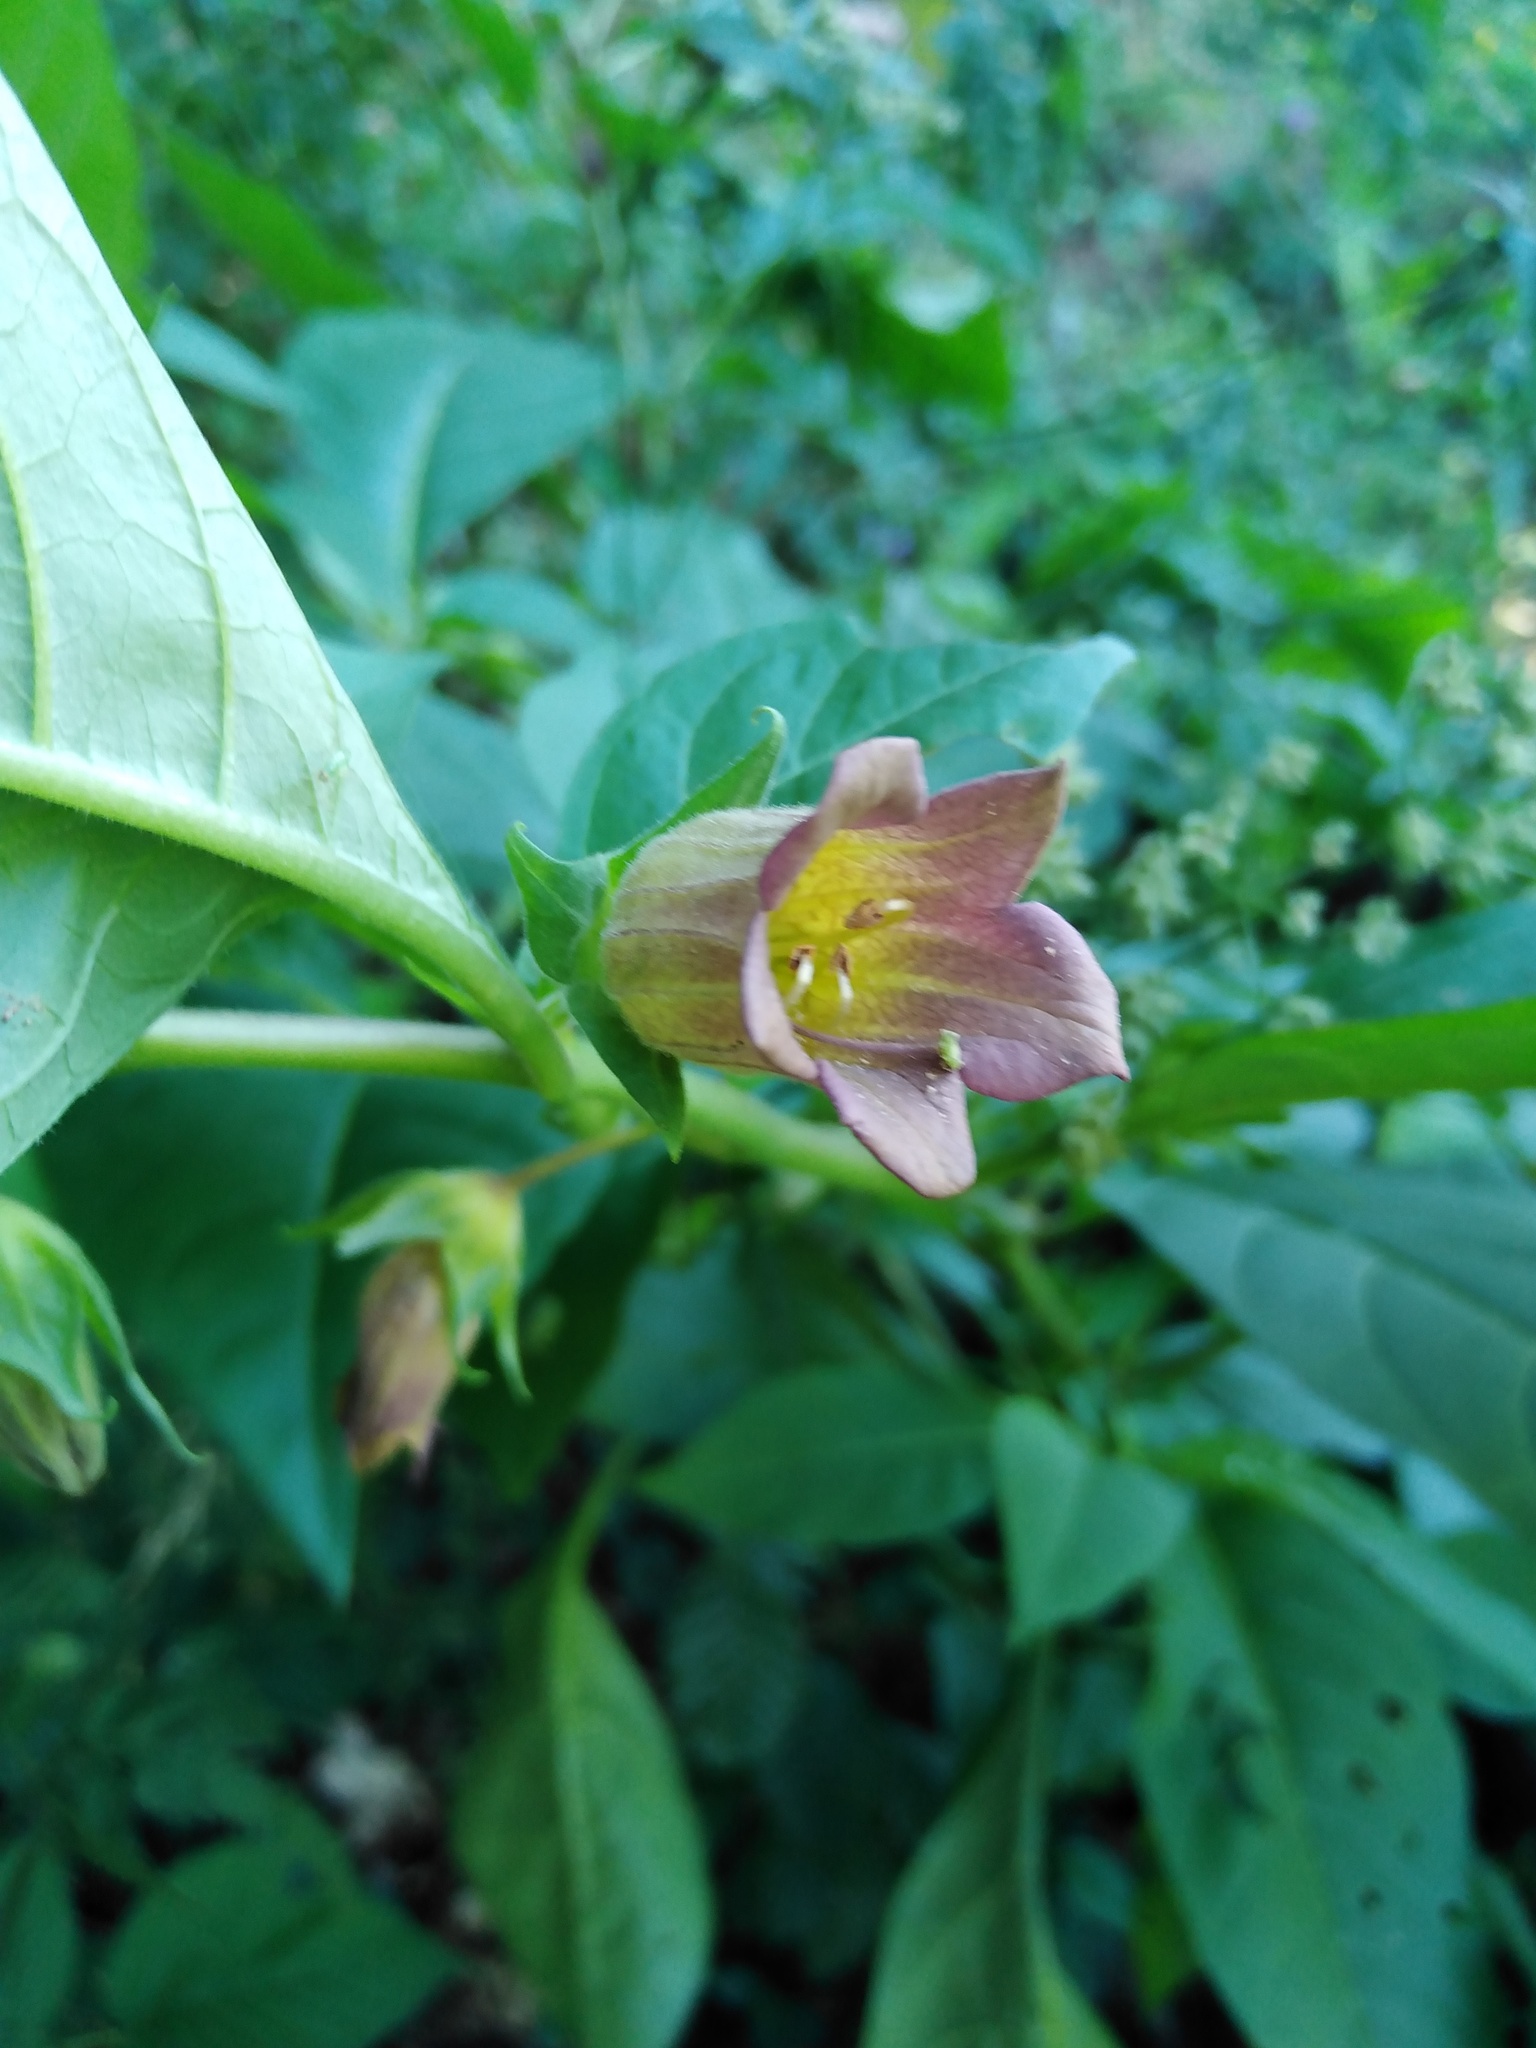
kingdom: Plantae
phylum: Tracheophyta
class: Magnoliopsida
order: Solanales
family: Solanaceae
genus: Atropa
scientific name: Atropa belladonna
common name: Deadly nightshade
